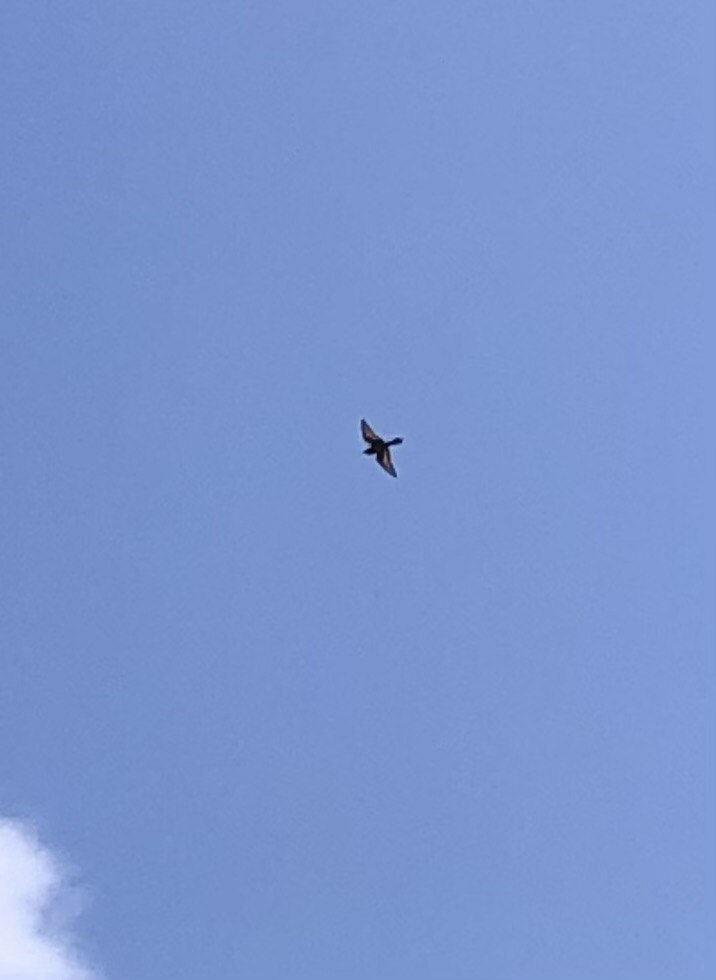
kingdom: Animalia
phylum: Chordata
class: Aves
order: Coraciiformes
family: Meropidae
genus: Merops
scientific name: Merops apiaster
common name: European bee-eater
